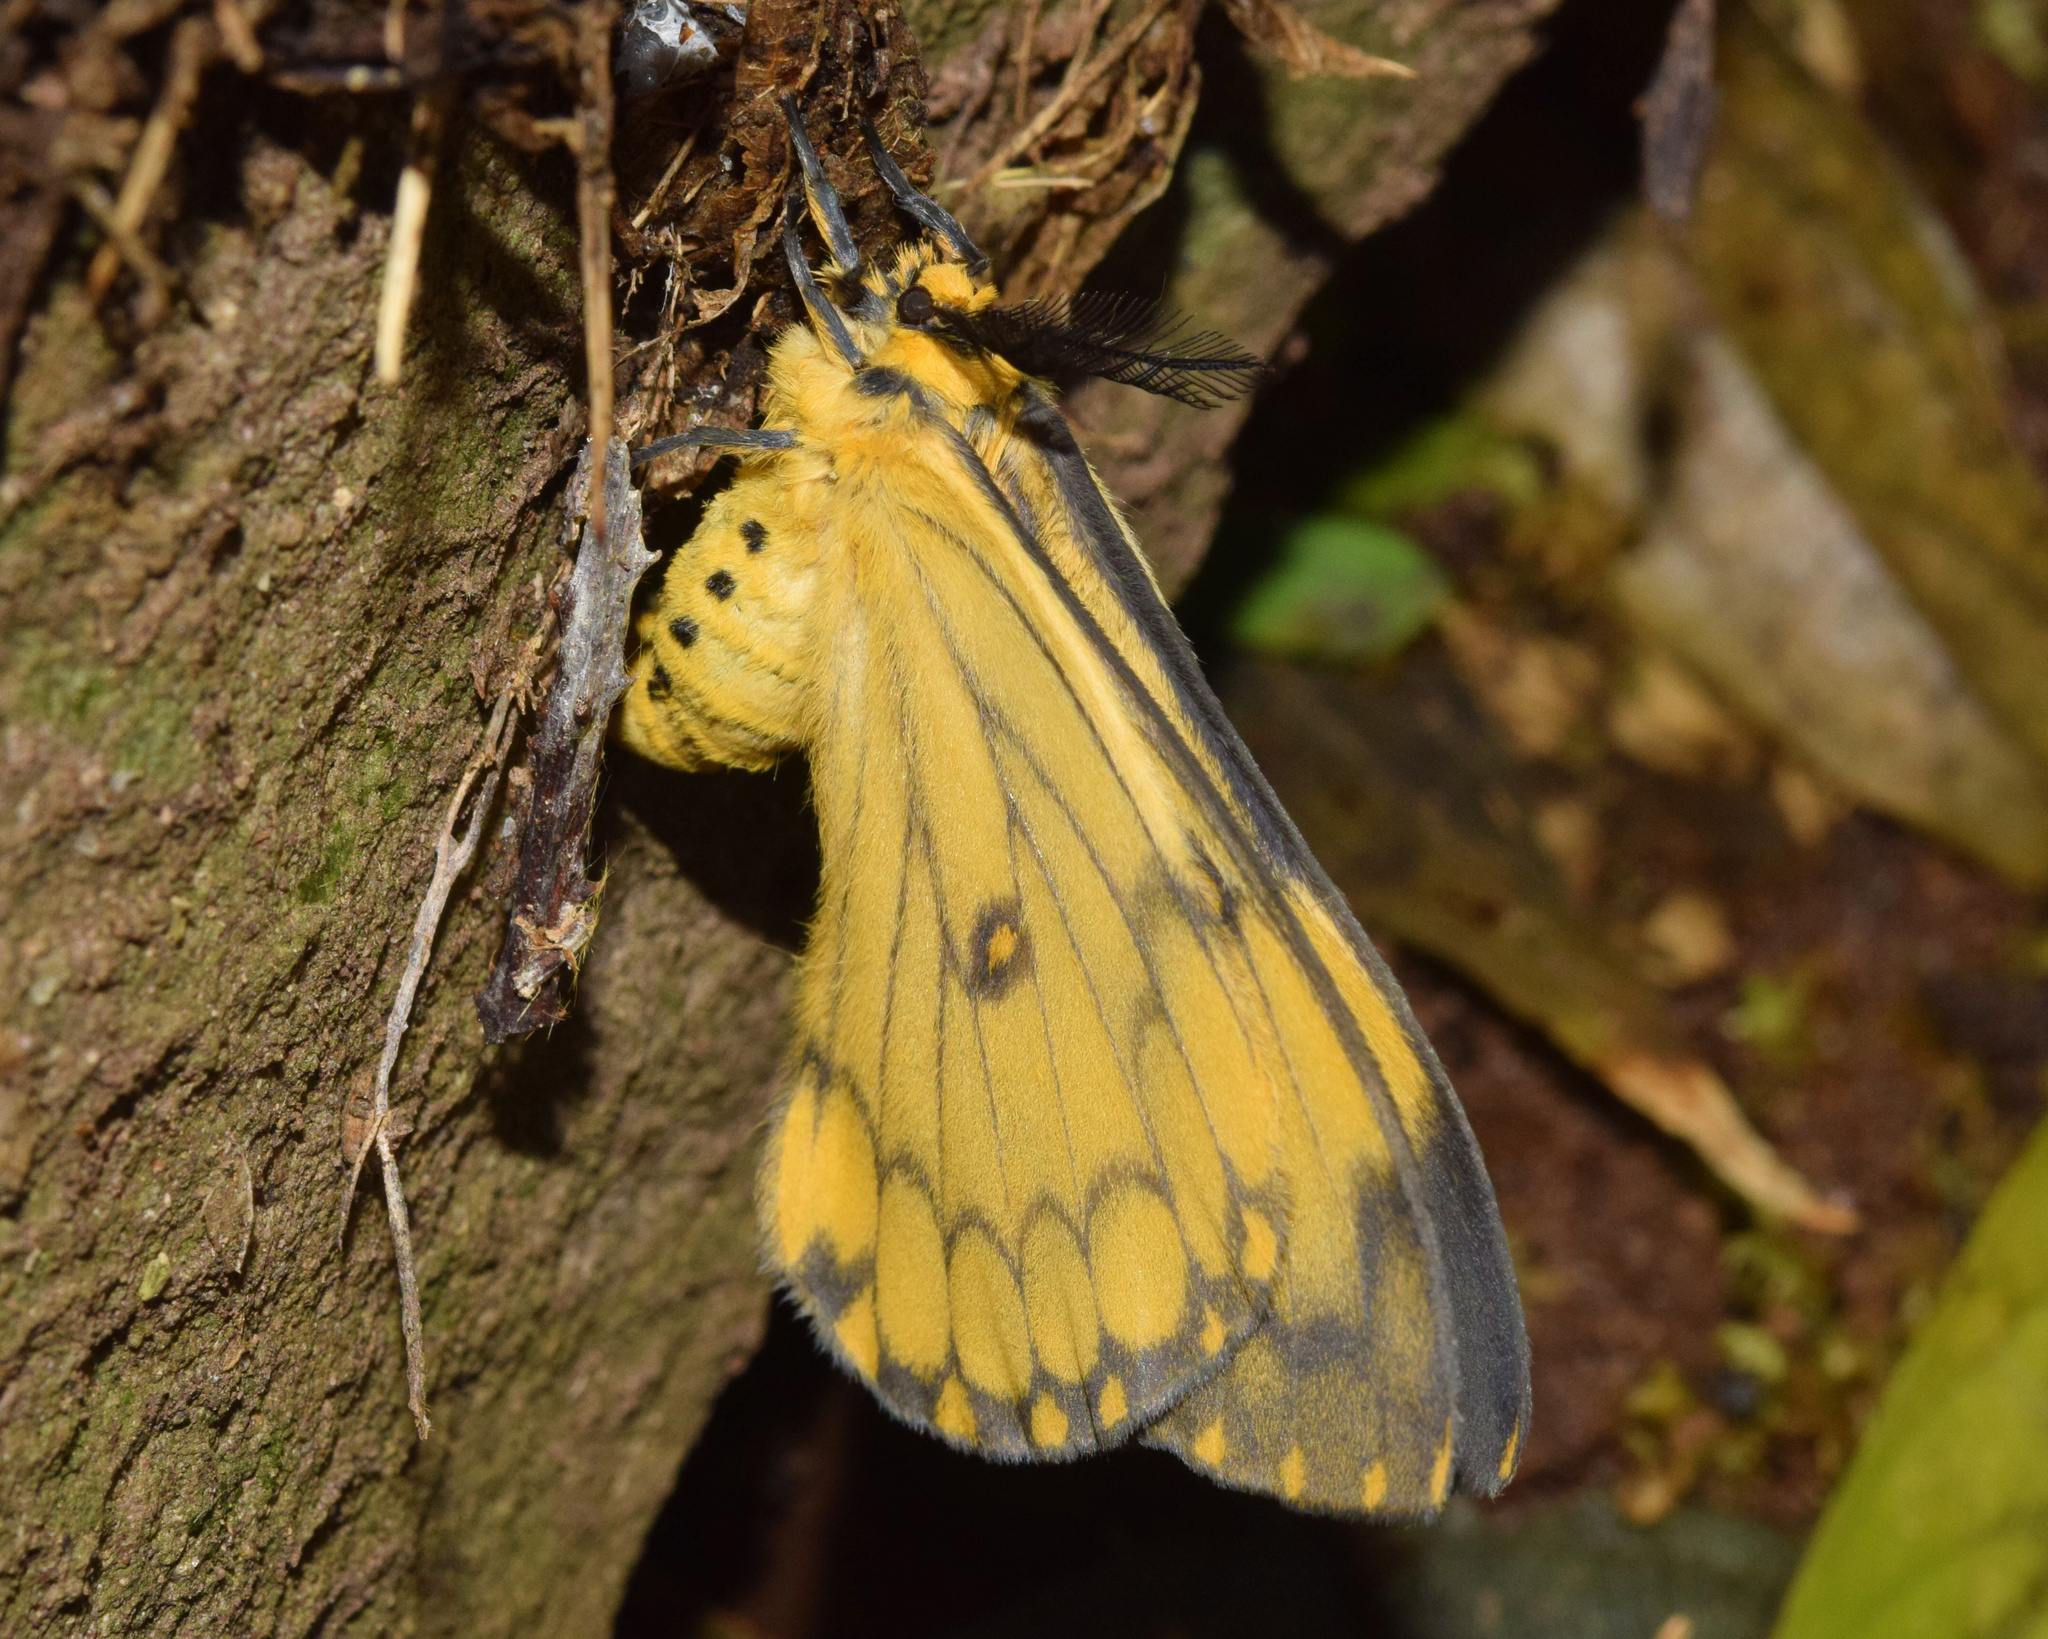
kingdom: Animalia
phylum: Arthropoda
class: Insecta
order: Lepidoptera
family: Saturniidae
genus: Pseudaphelia
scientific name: Pseudaphelia apollinaris
